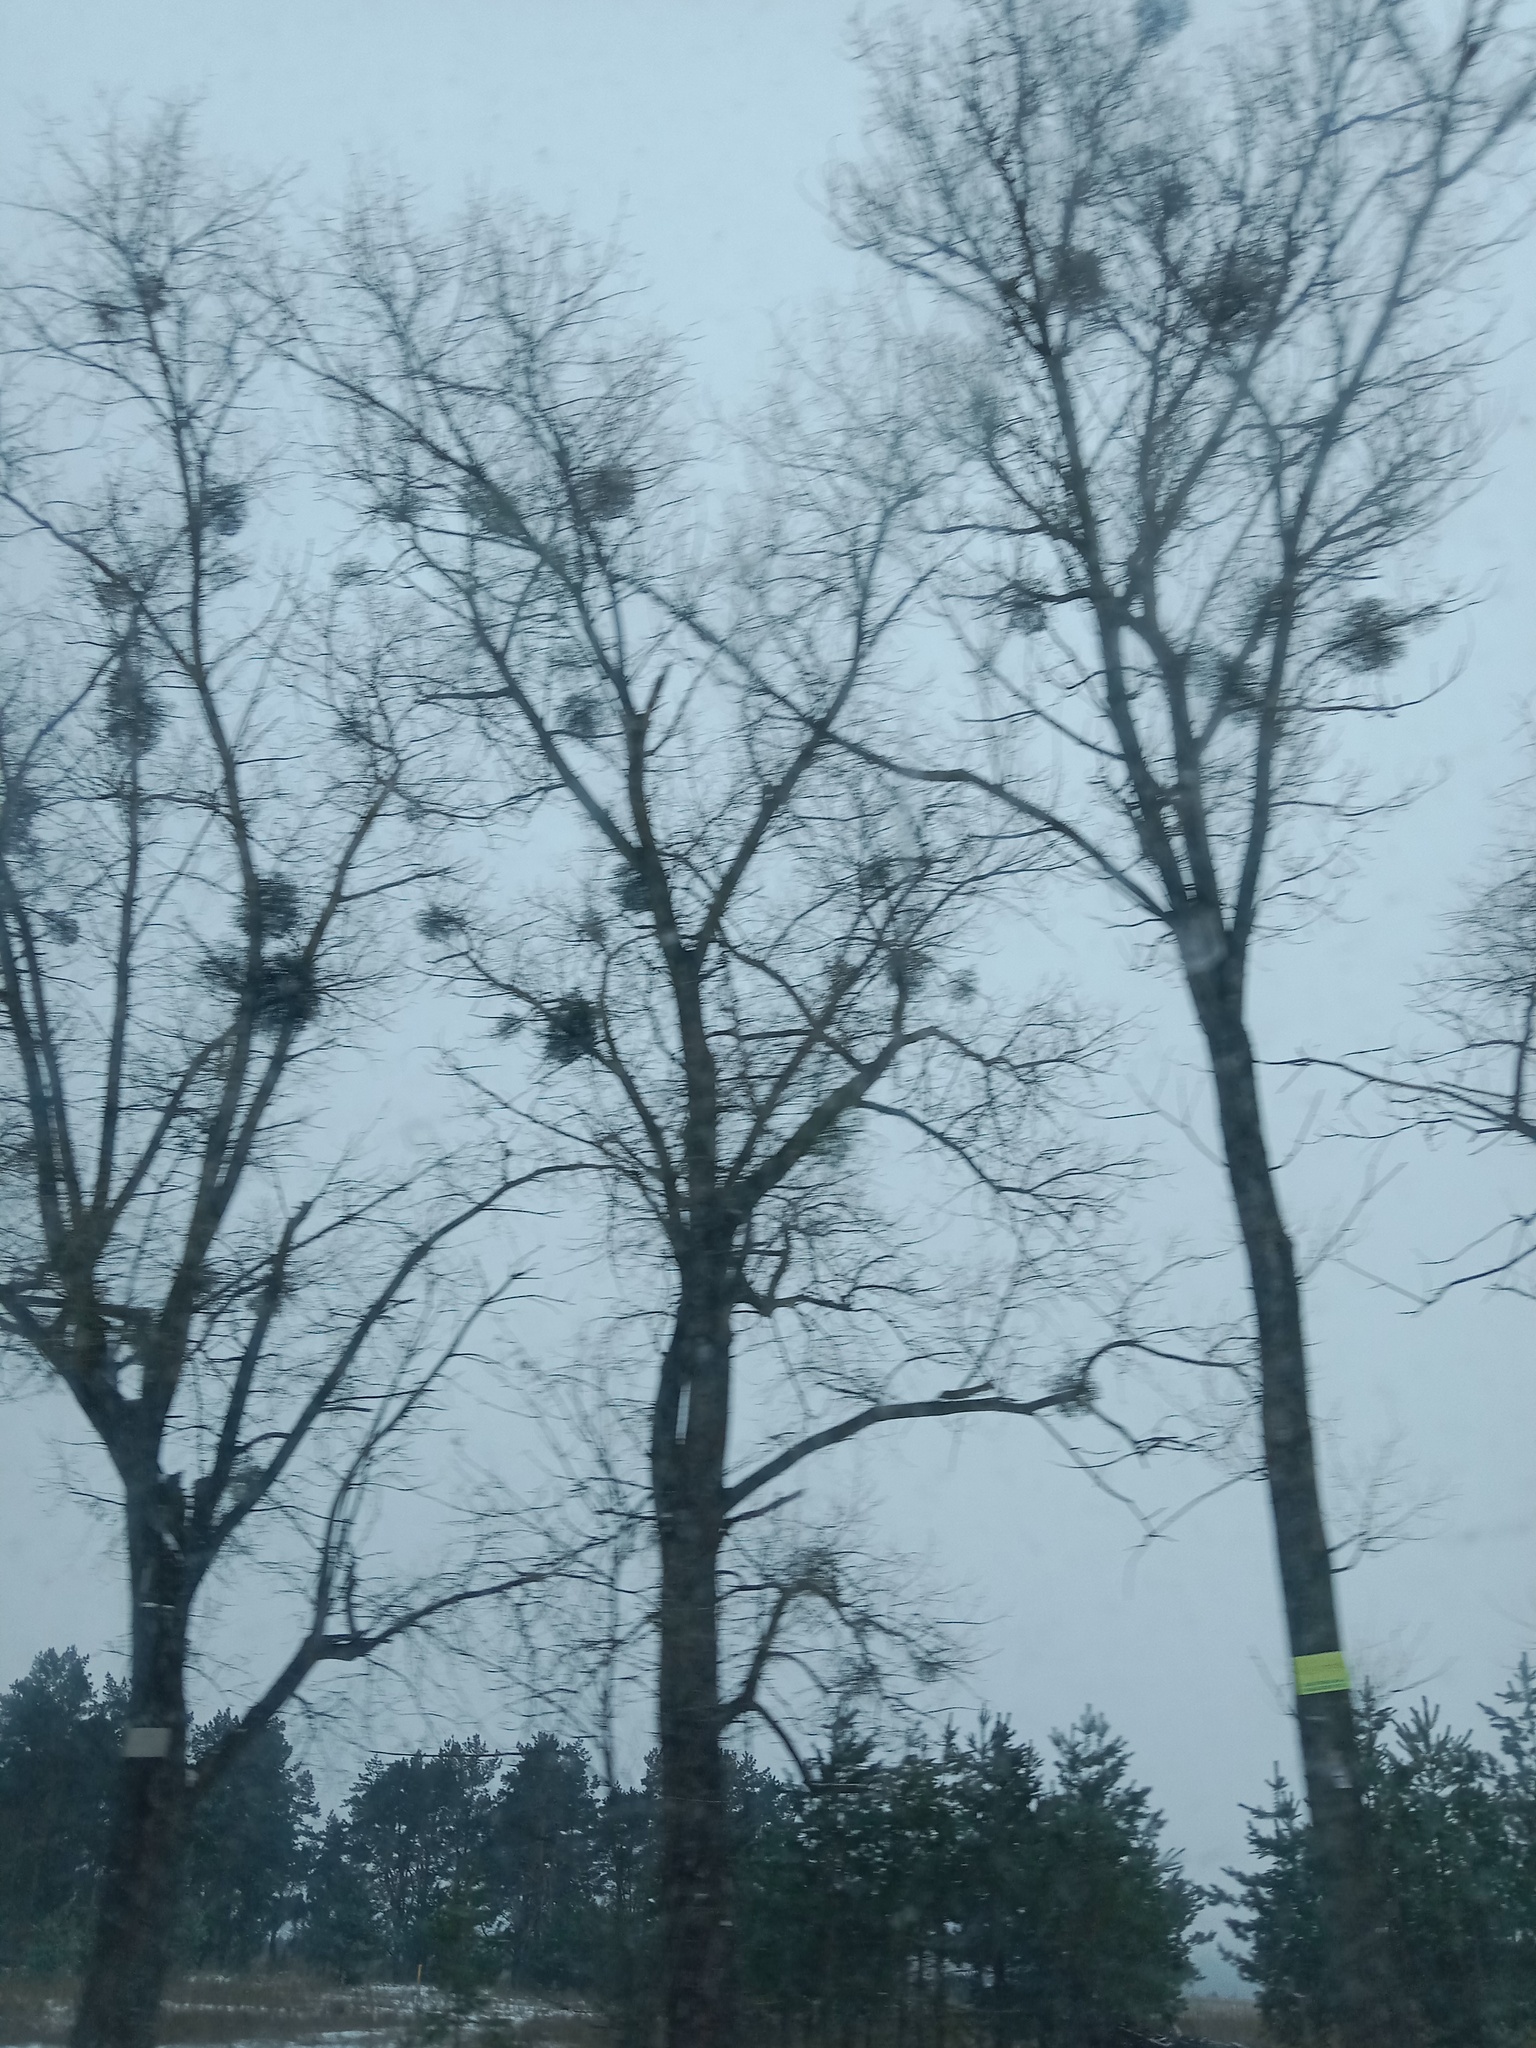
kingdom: Plantae
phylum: Tracheophyta
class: Magnoliopsida
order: Santalales
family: Viscaceae
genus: Viscum
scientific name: Viscum album
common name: Mistletoe
